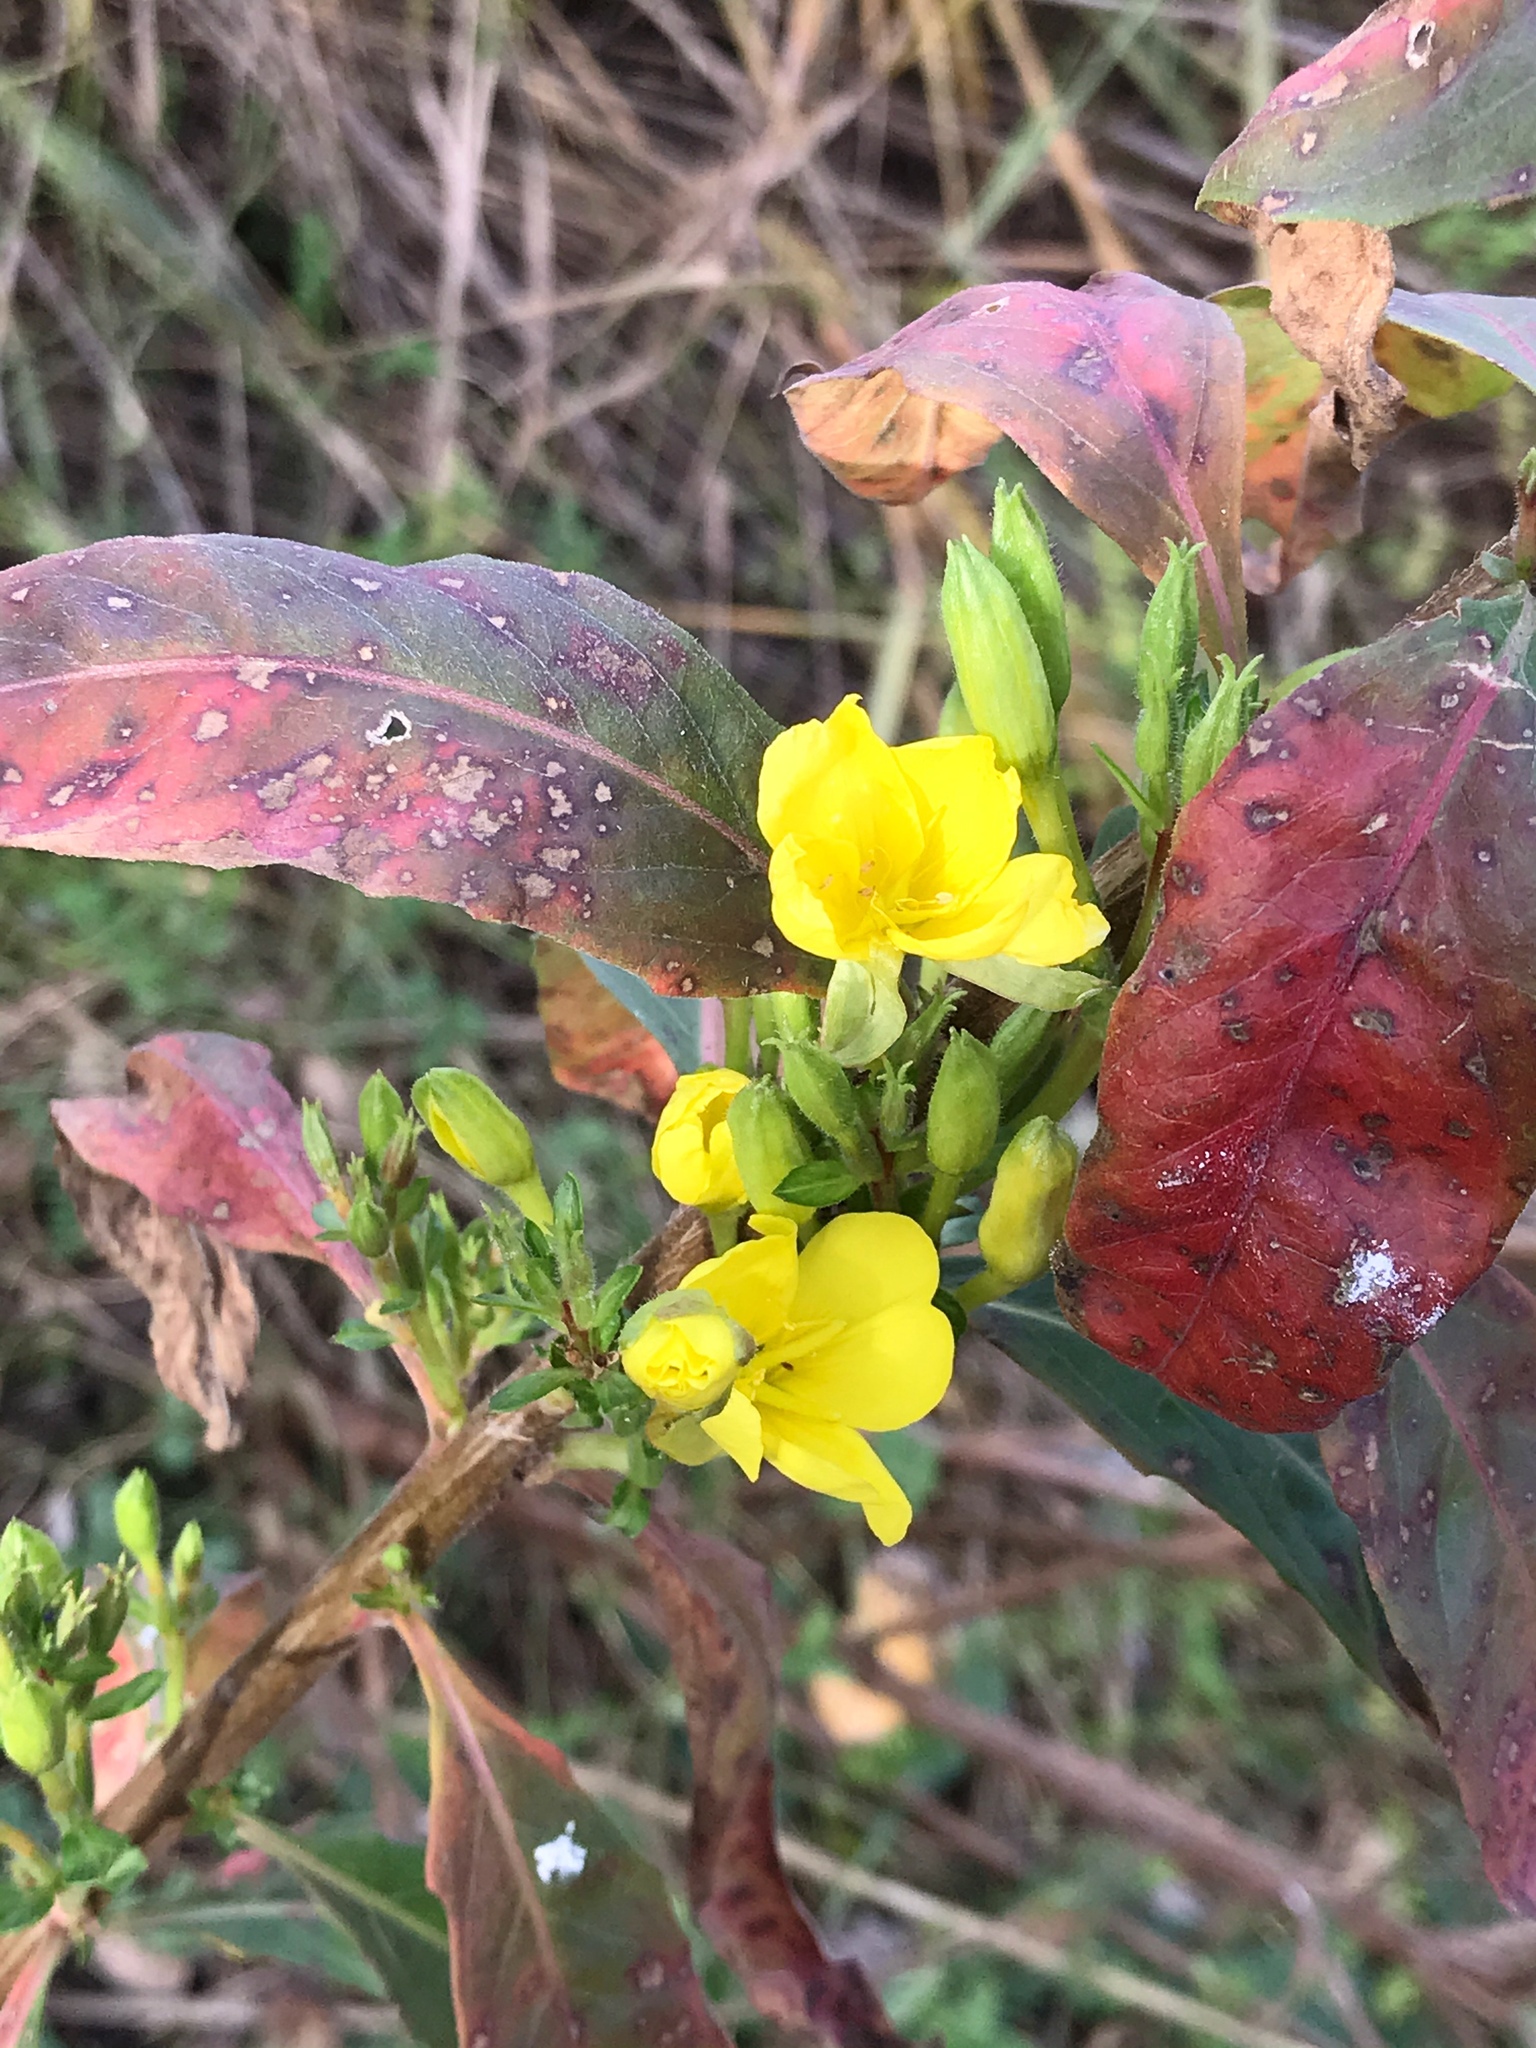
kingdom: Plantae
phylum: Tracheophyta
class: Magnoliopsida
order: Myrtales
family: Onagraceae
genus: Oenothera
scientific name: Oenothera biennis
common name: Common evening-primrose
